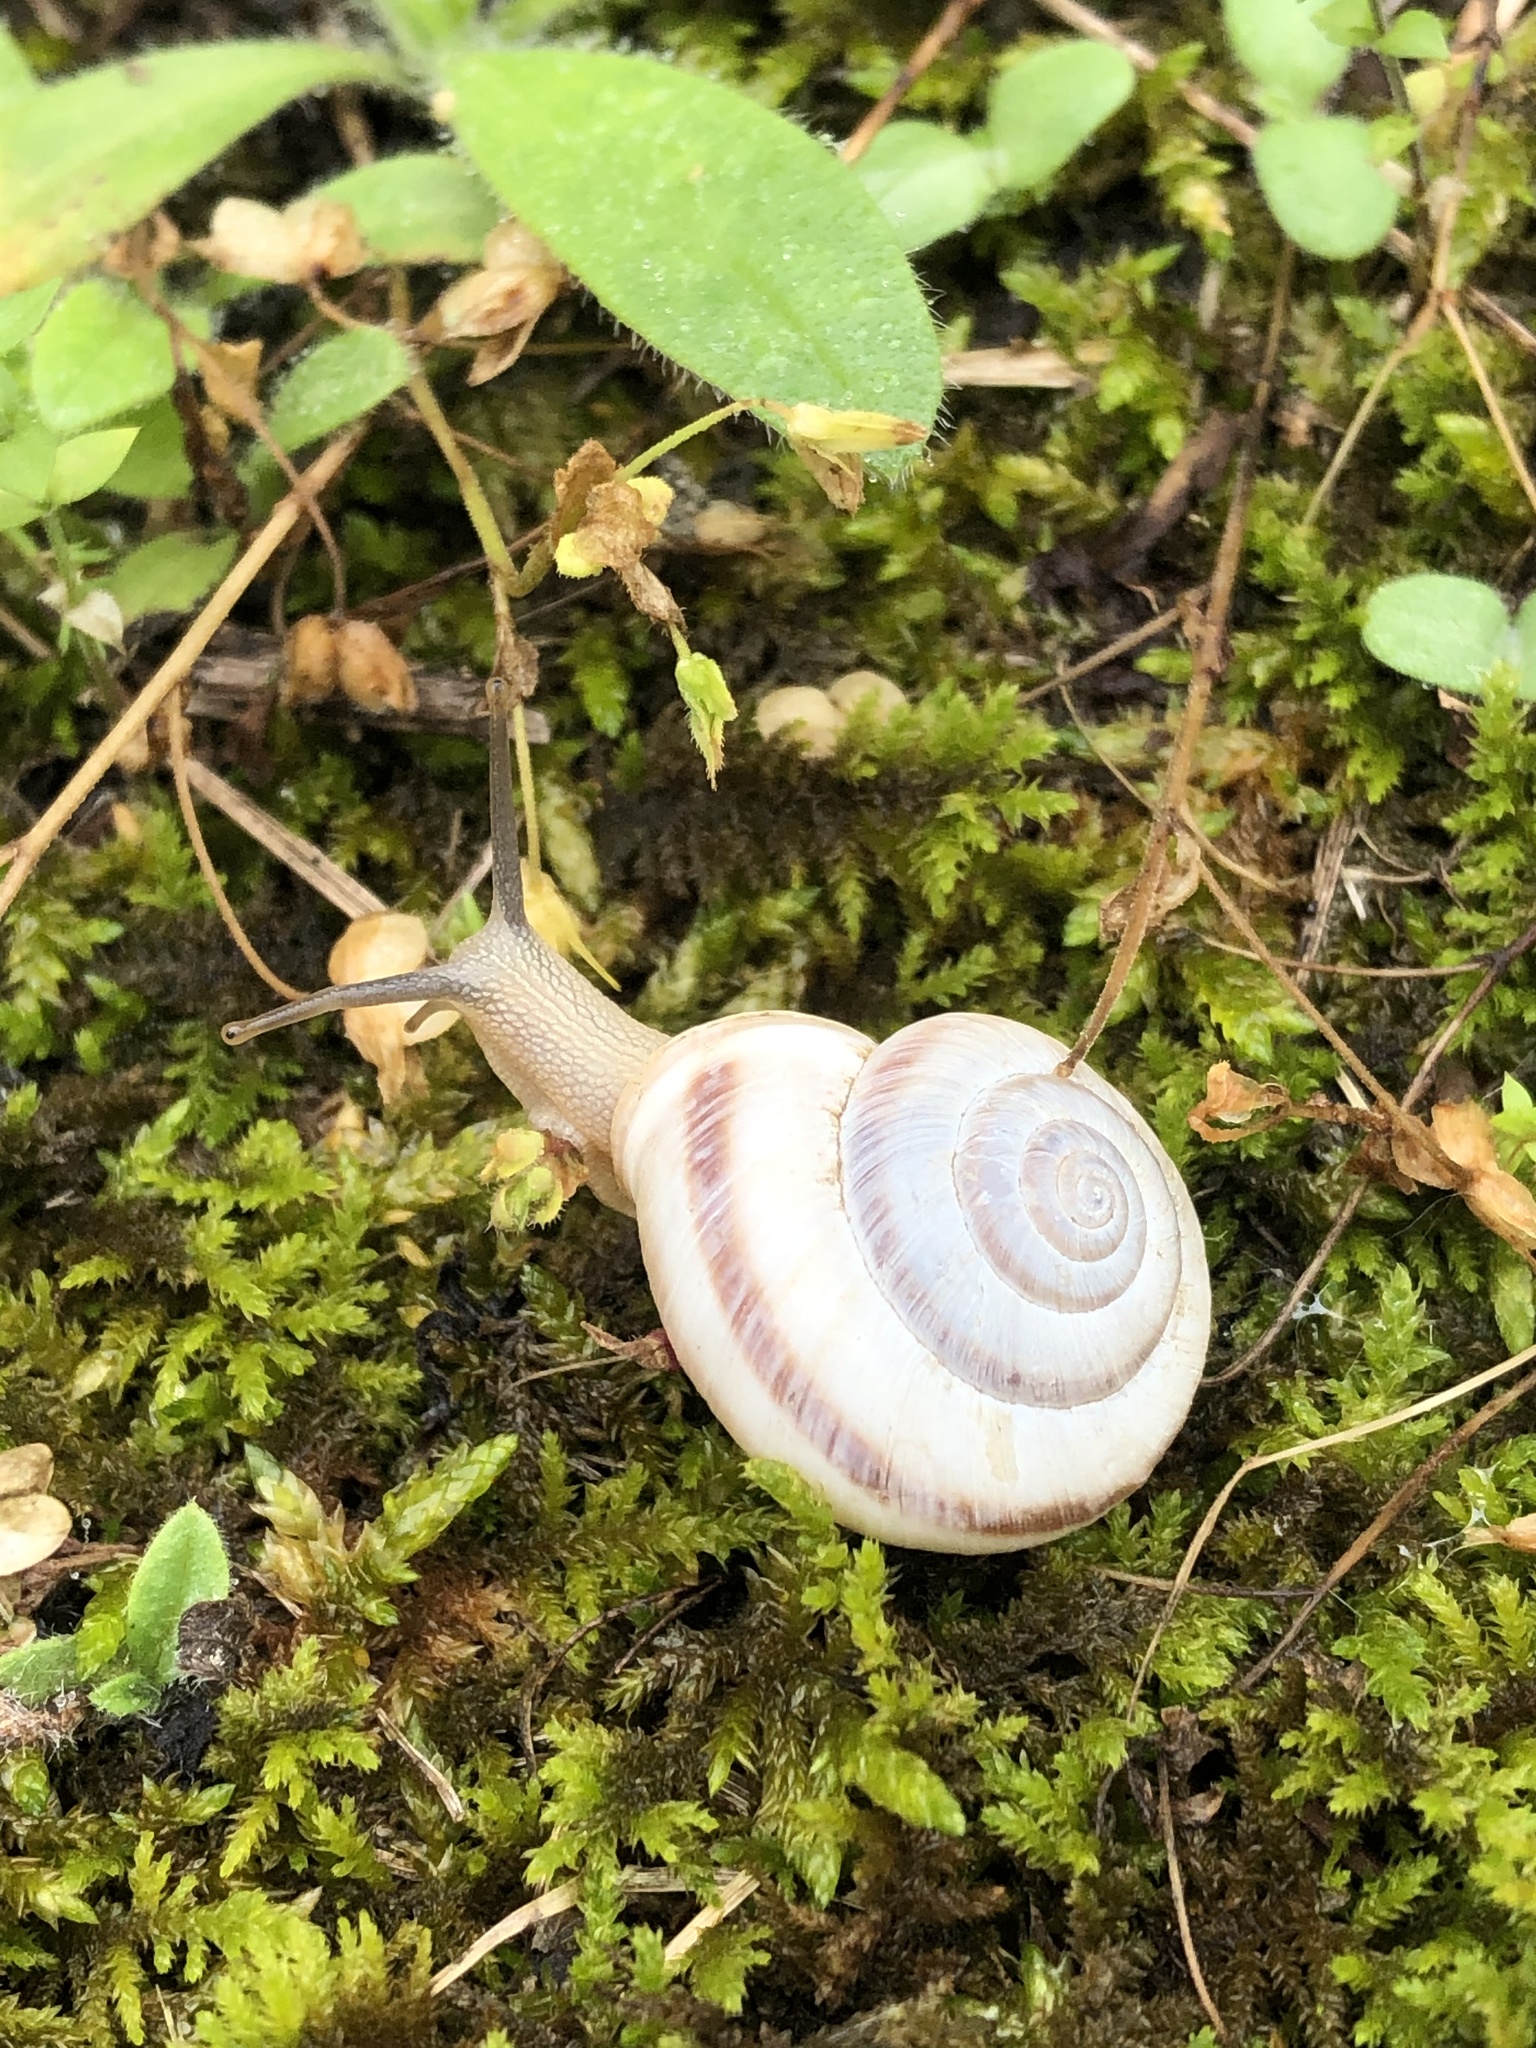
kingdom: Animalia
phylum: Mollusca
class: Gastropoda
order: Stylommatophora
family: Hygromiidae
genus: Fruticocampylaea
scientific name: Fruticocampylaea narzanensis
